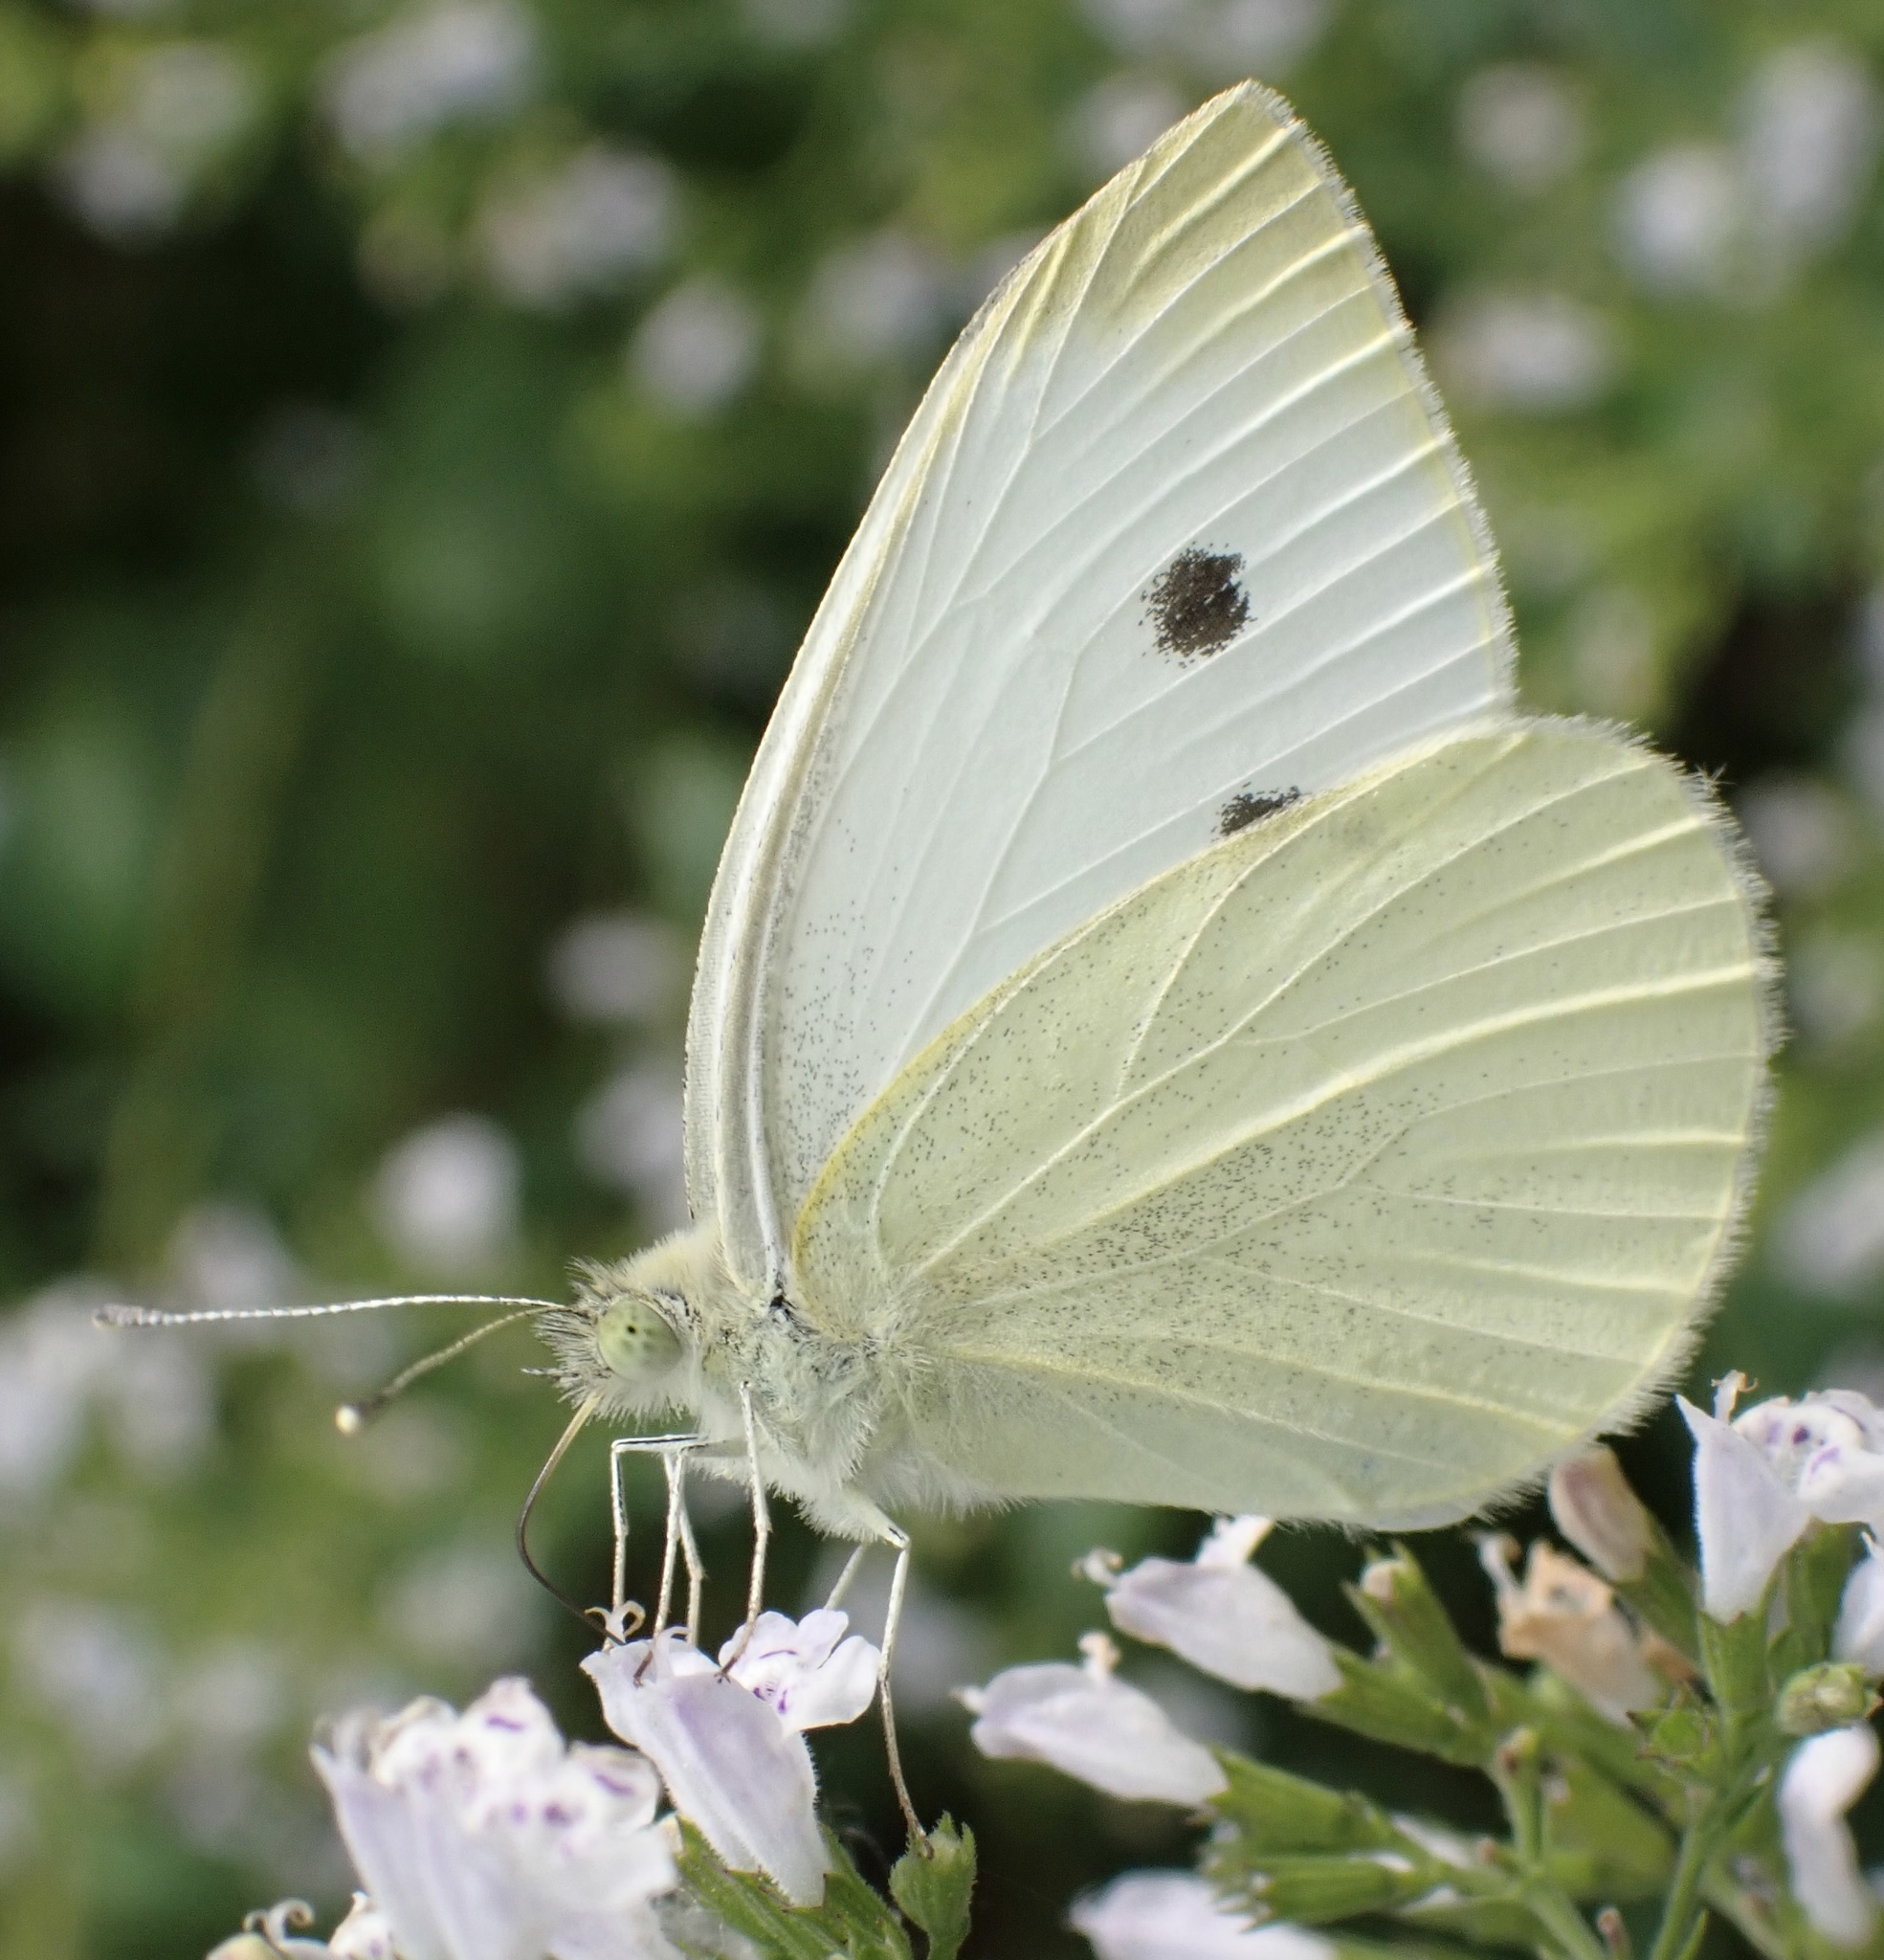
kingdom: Animalia
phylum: Arthropoda
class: Insecta
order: Lepidoptera
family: Pieridae
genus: Pieris
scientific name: Pieris rapae
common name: Small white
